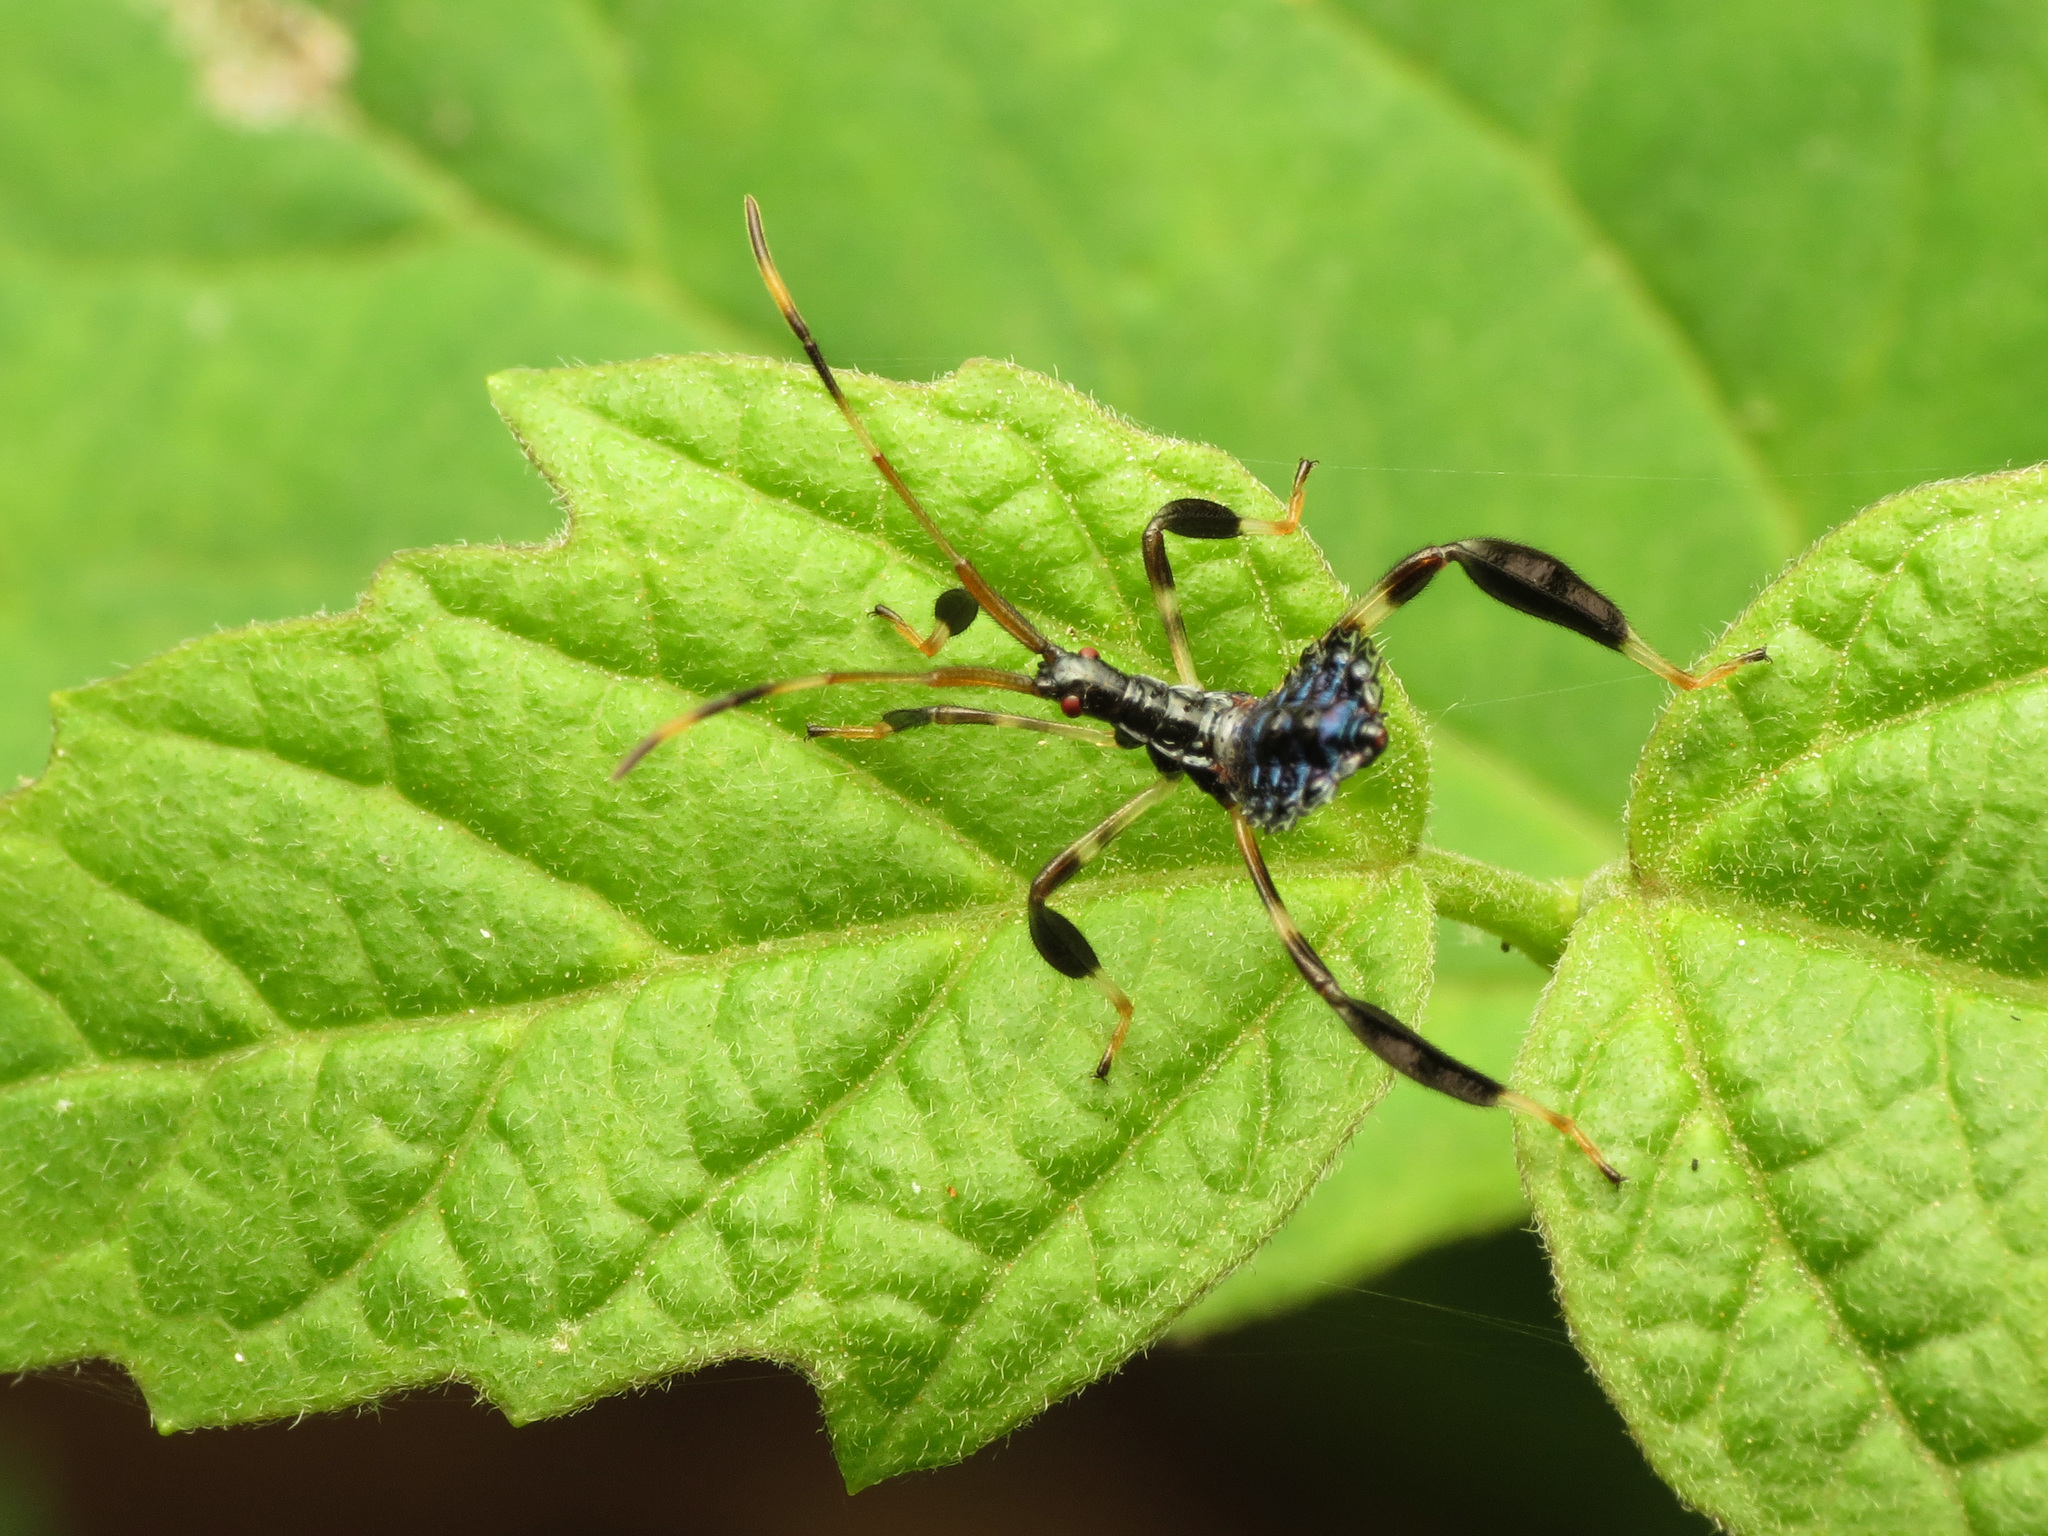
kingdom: Animalia
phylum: Arthropoda
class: Insecta
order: Hemiptera
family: Coreidae
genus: Acanthocephala
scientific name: Acanthocephala terminalis
